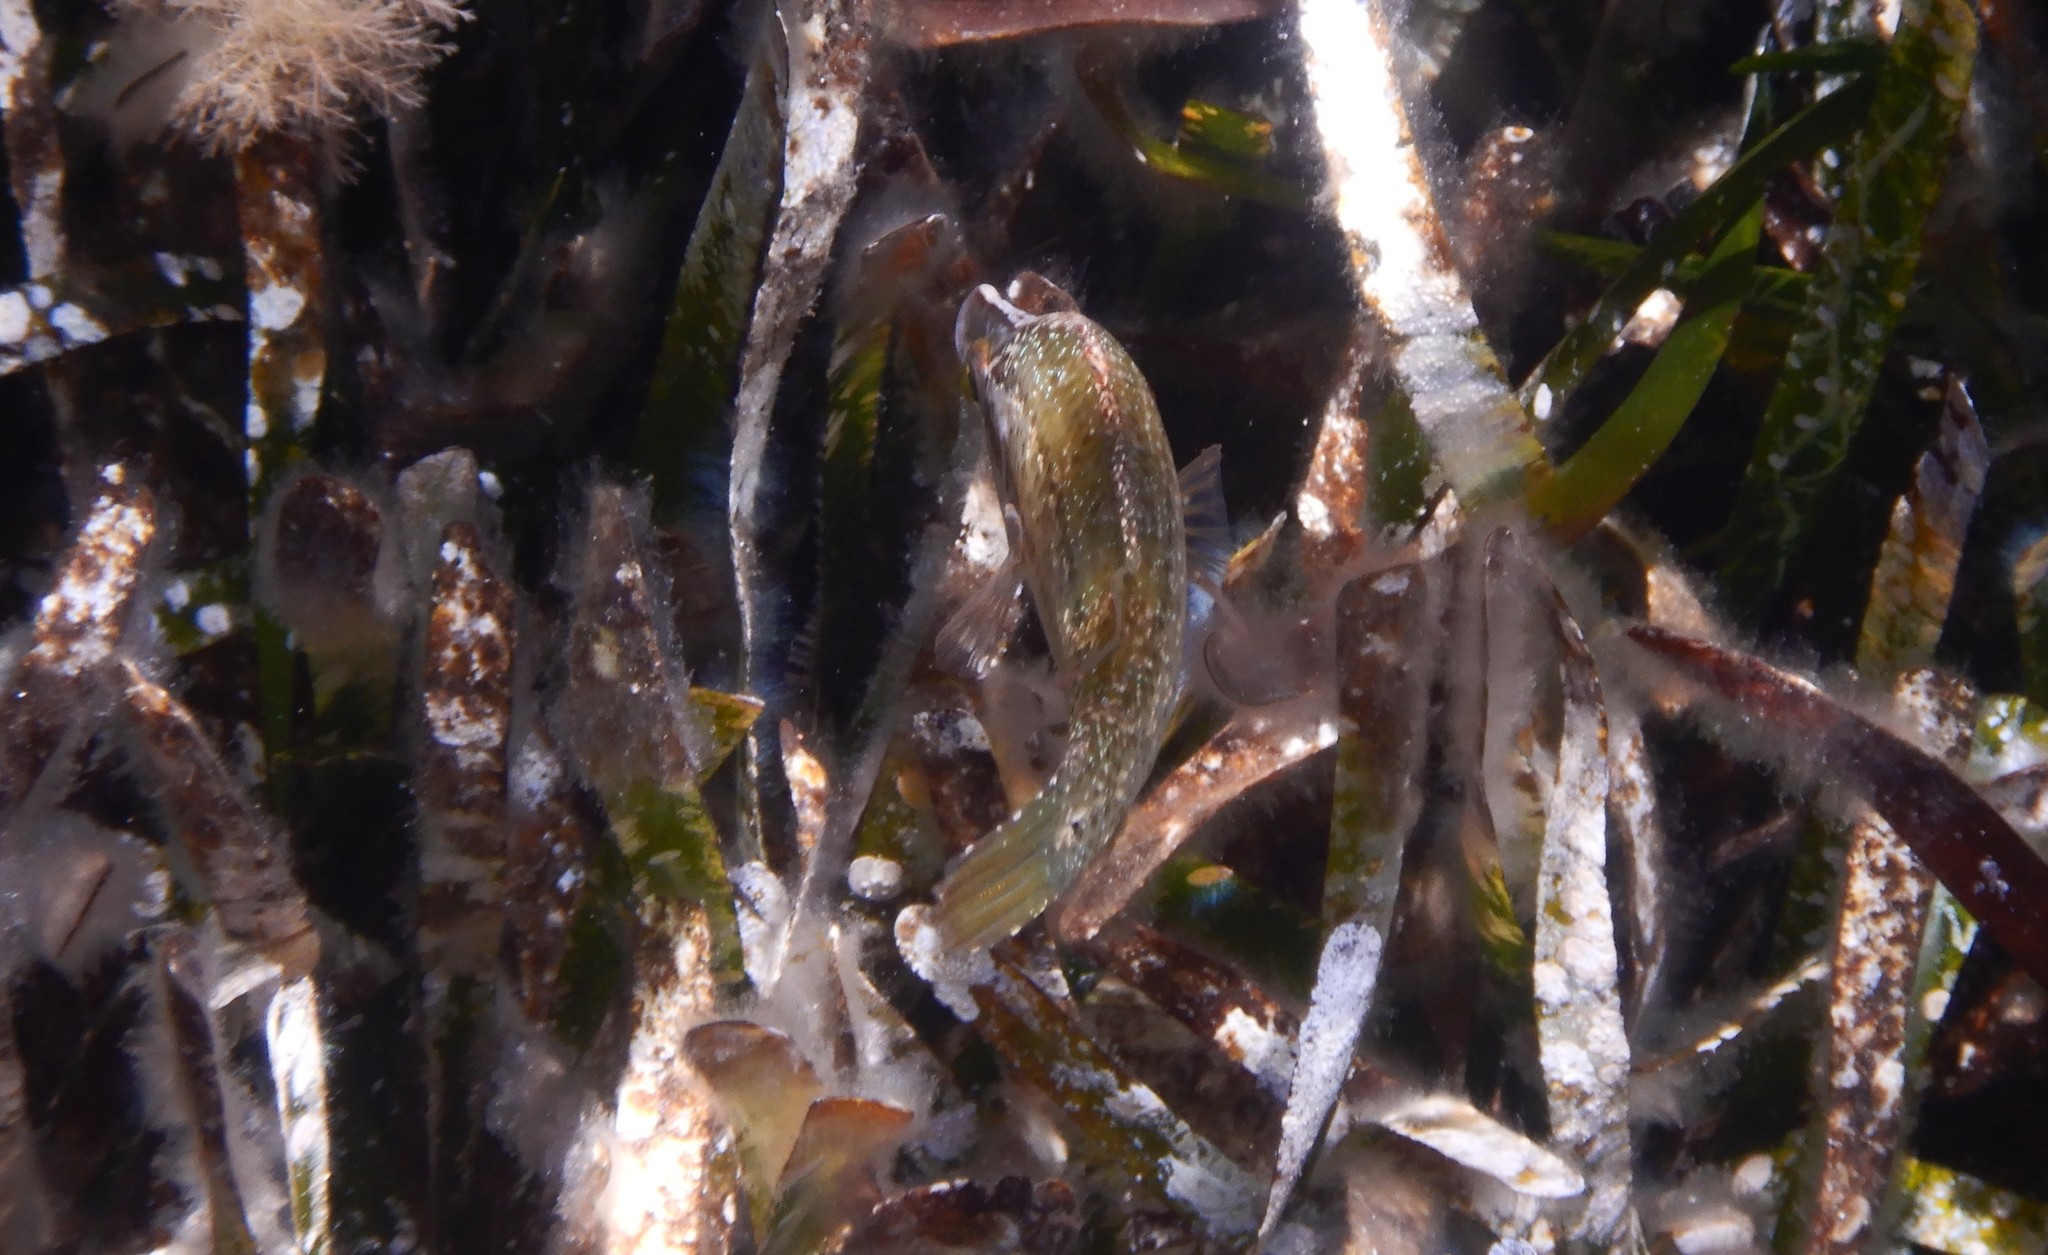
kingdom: Animalia
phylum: Chordata
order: Perciformes
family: Labridae
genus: Symphodus
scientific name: Symphodus rostratus
